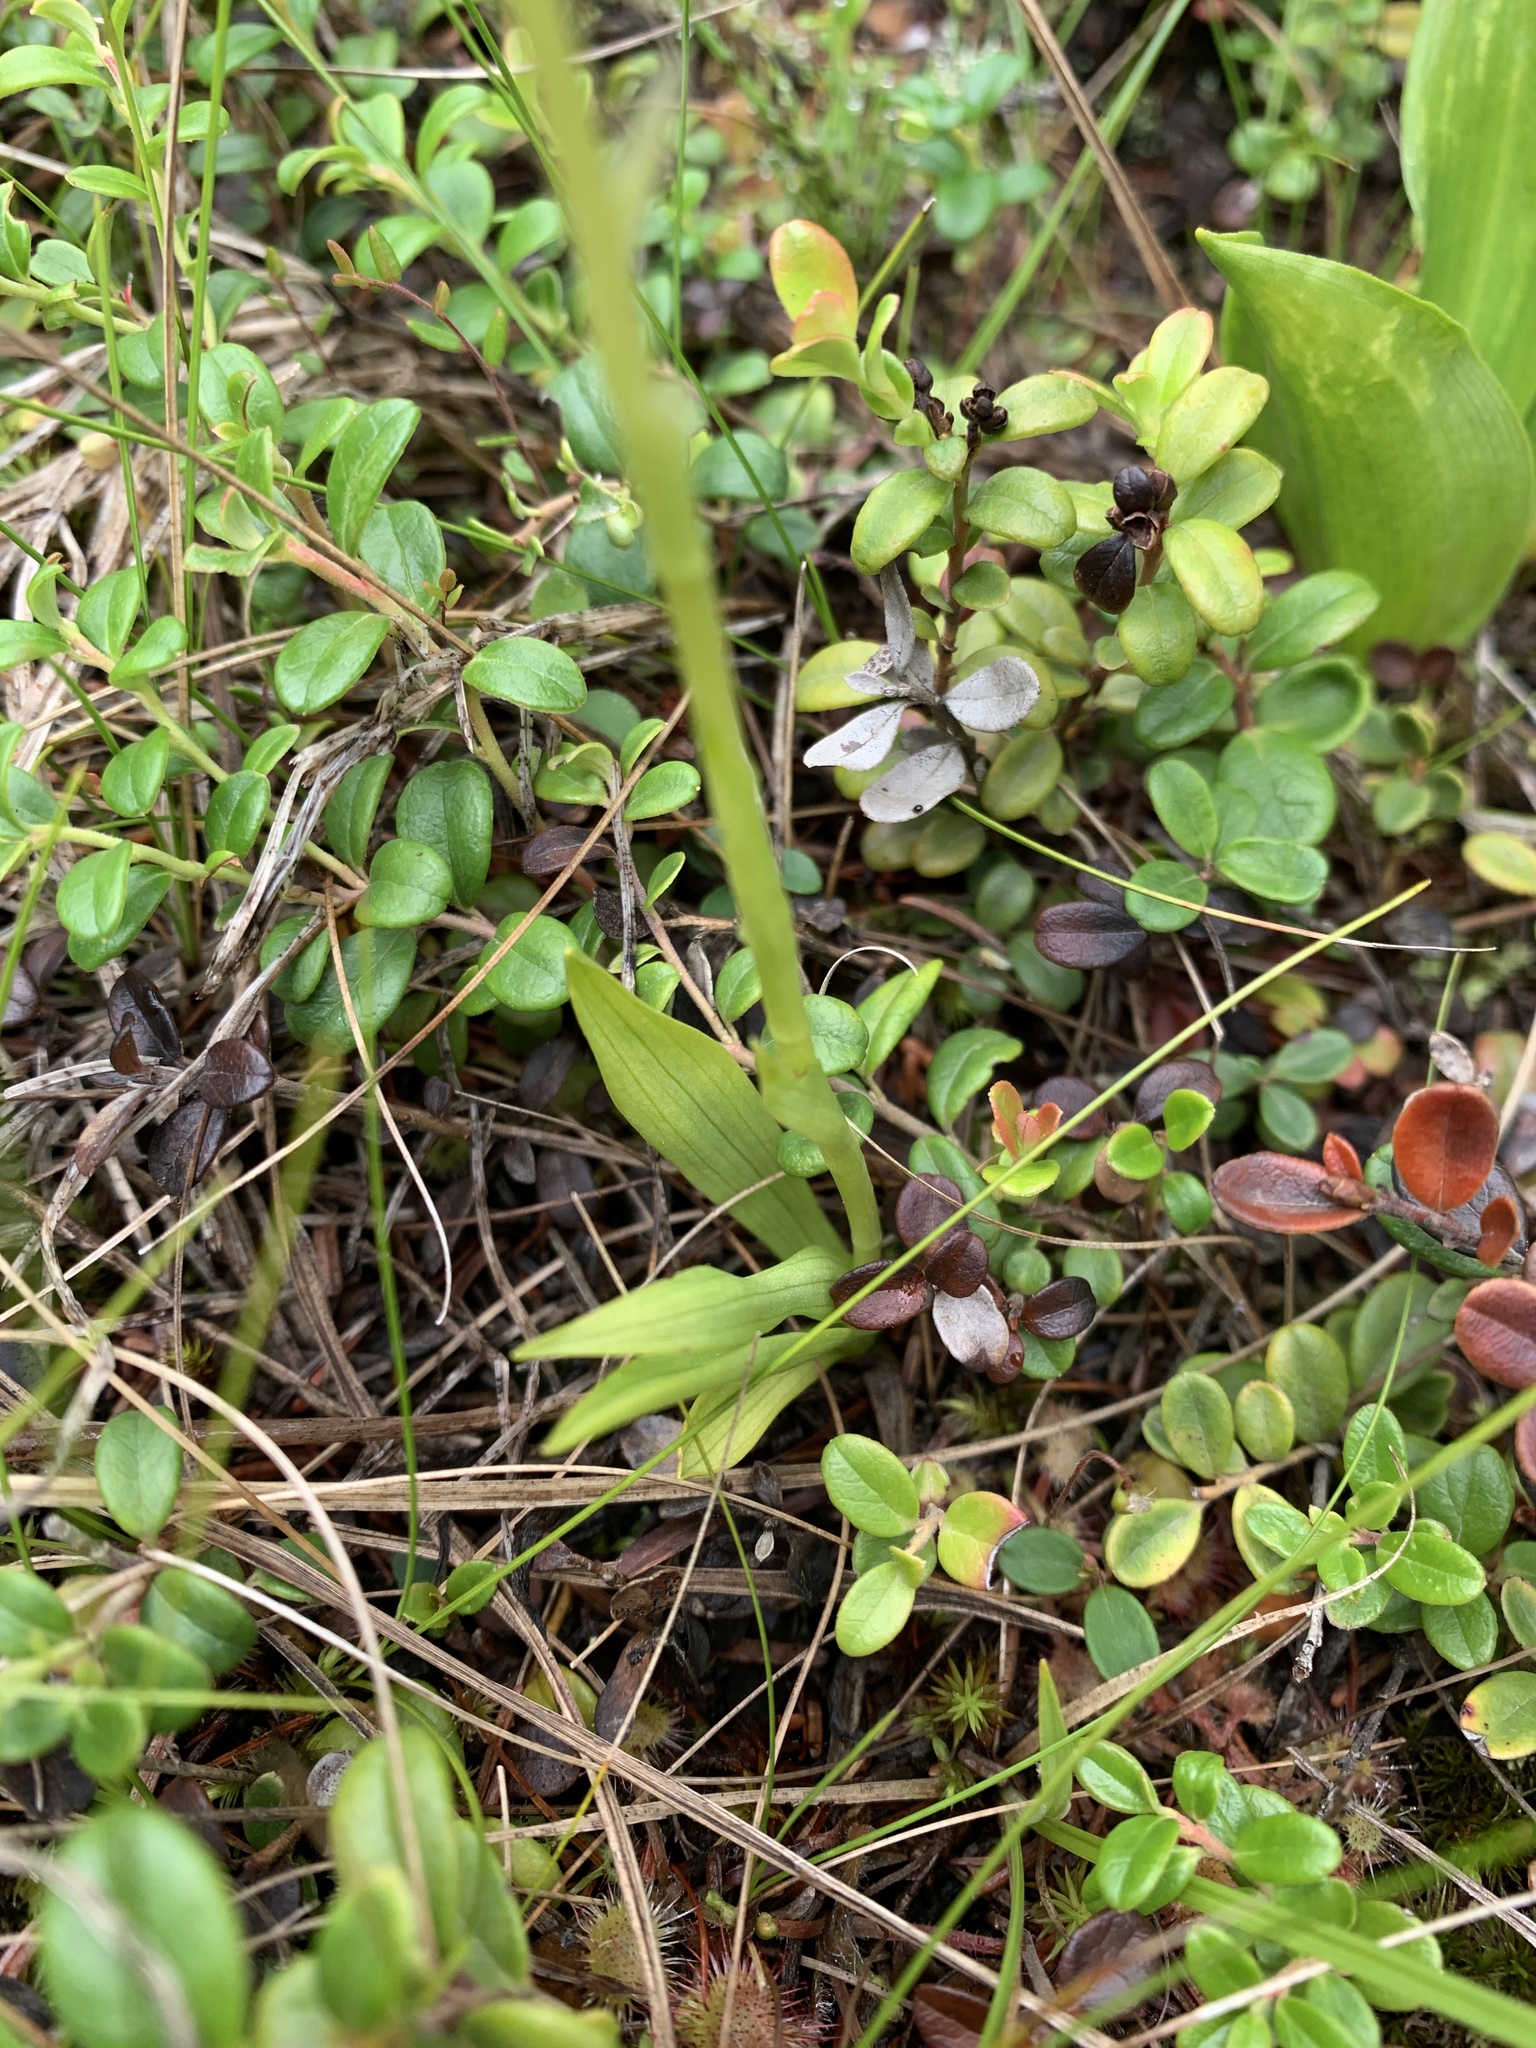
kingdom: Plantae
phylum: Tracheophyta
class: Liliopsida
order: Asparagales
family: Orchidaceae
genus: Spiranthes
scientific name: Spiranthes romanzoffiana
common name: Irish lady's-tresses
